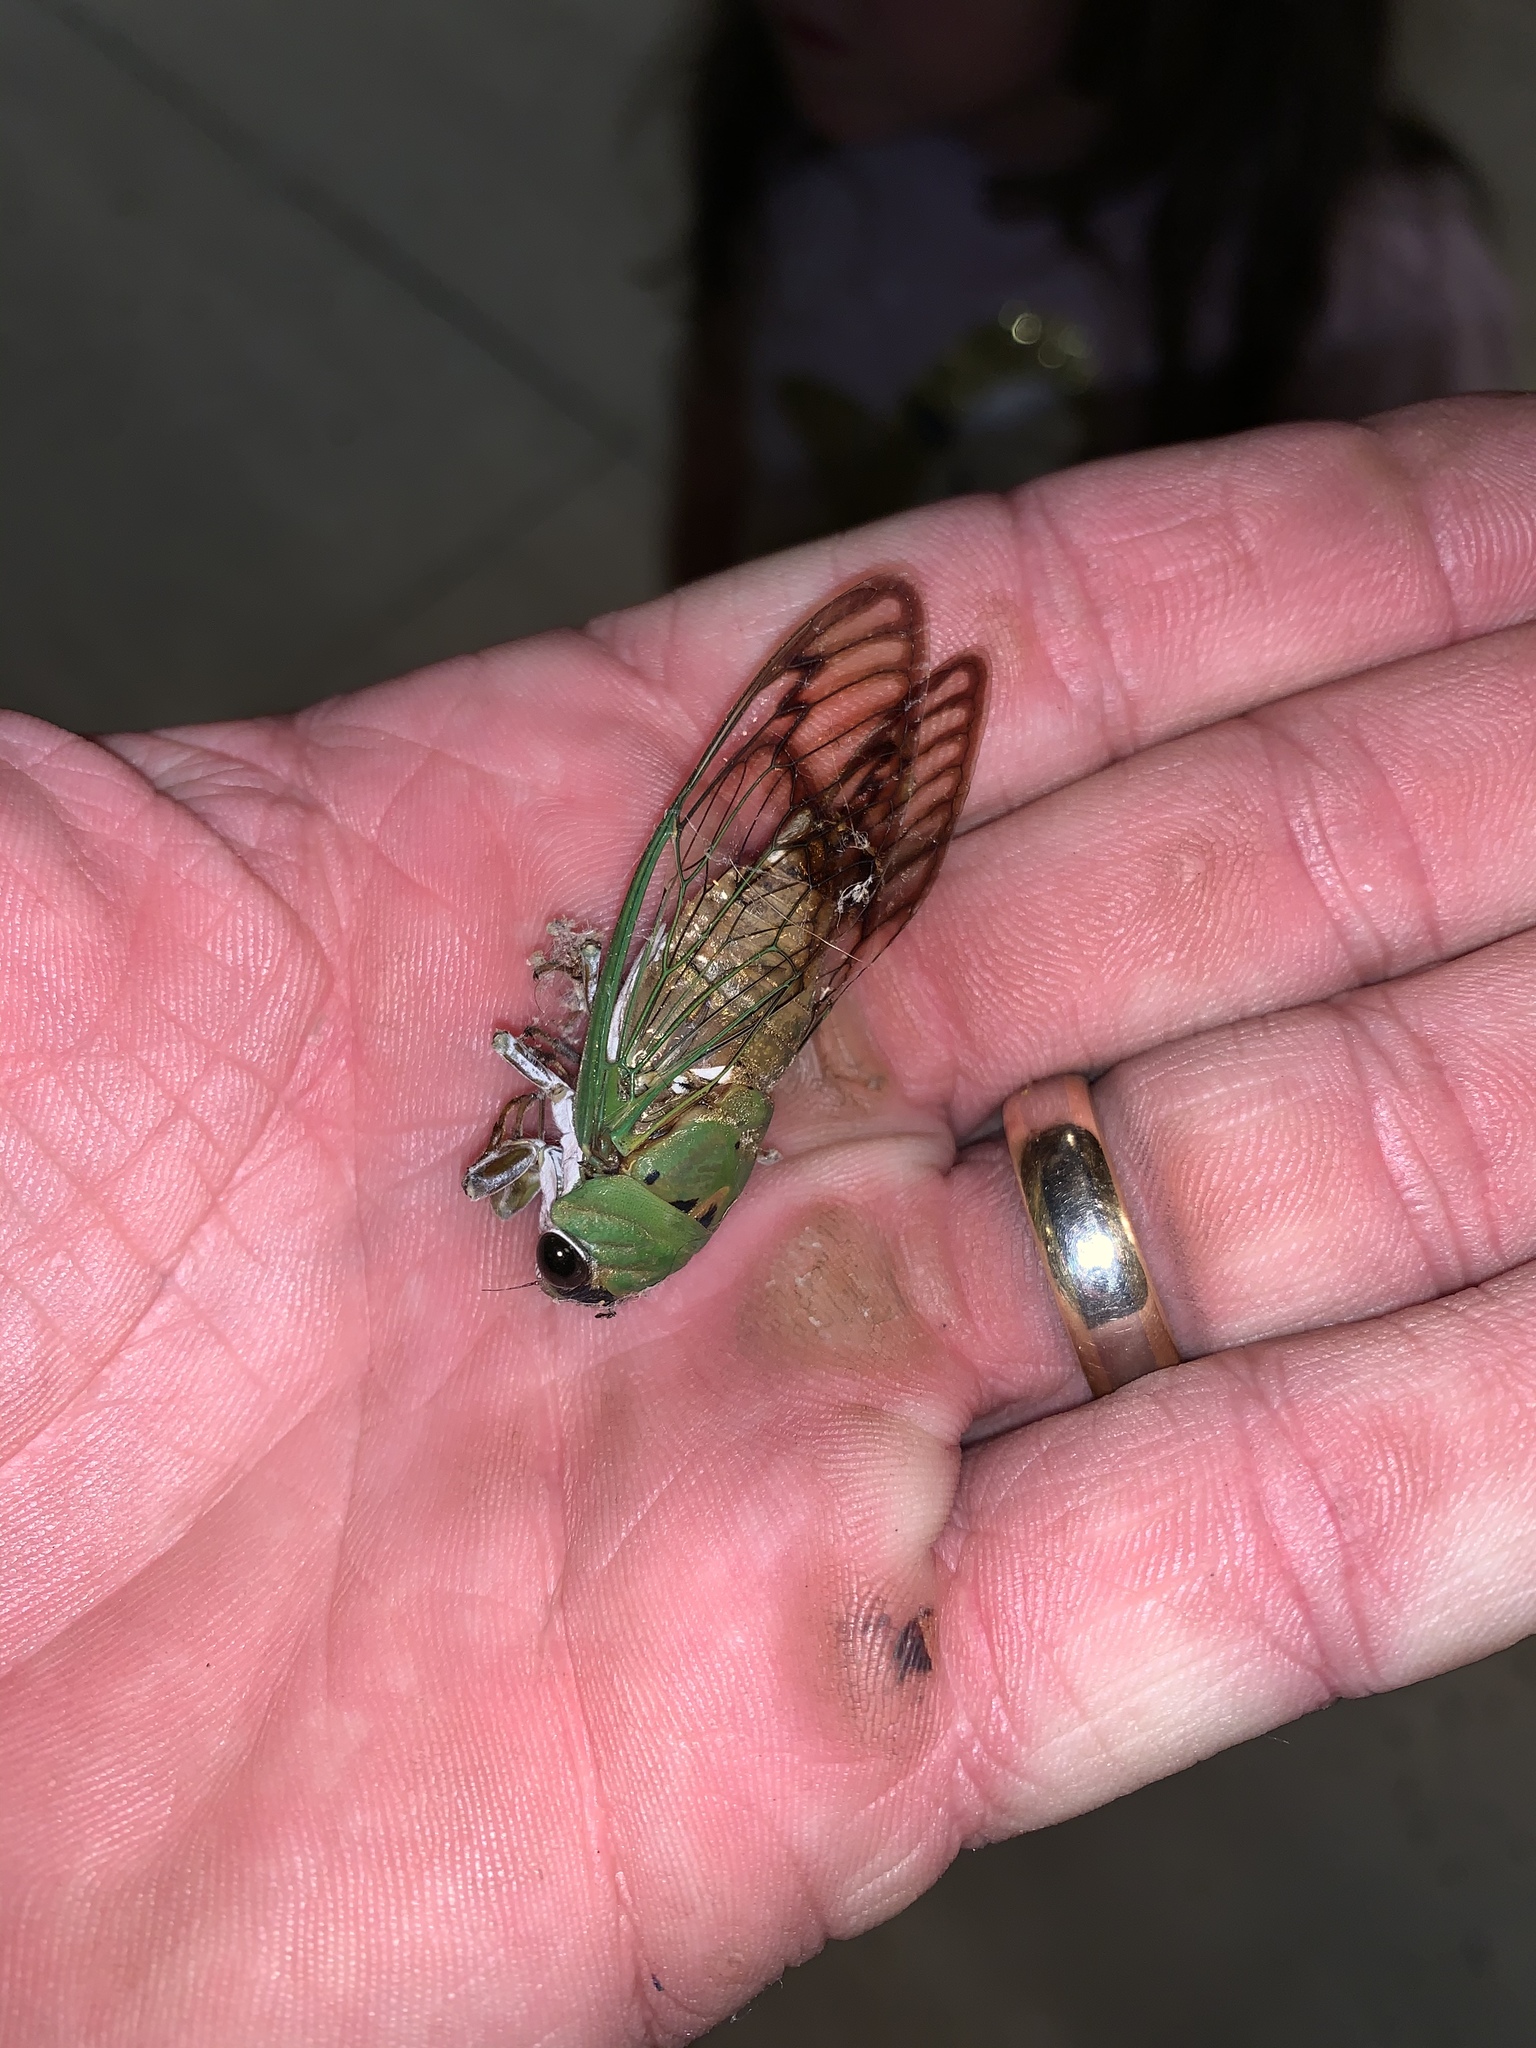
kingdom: Animalia
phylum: Arthropoda
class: Insecta
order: Hemiptera
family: Cicadidae
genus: Neotibicen
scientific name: Neotibicen superbus
